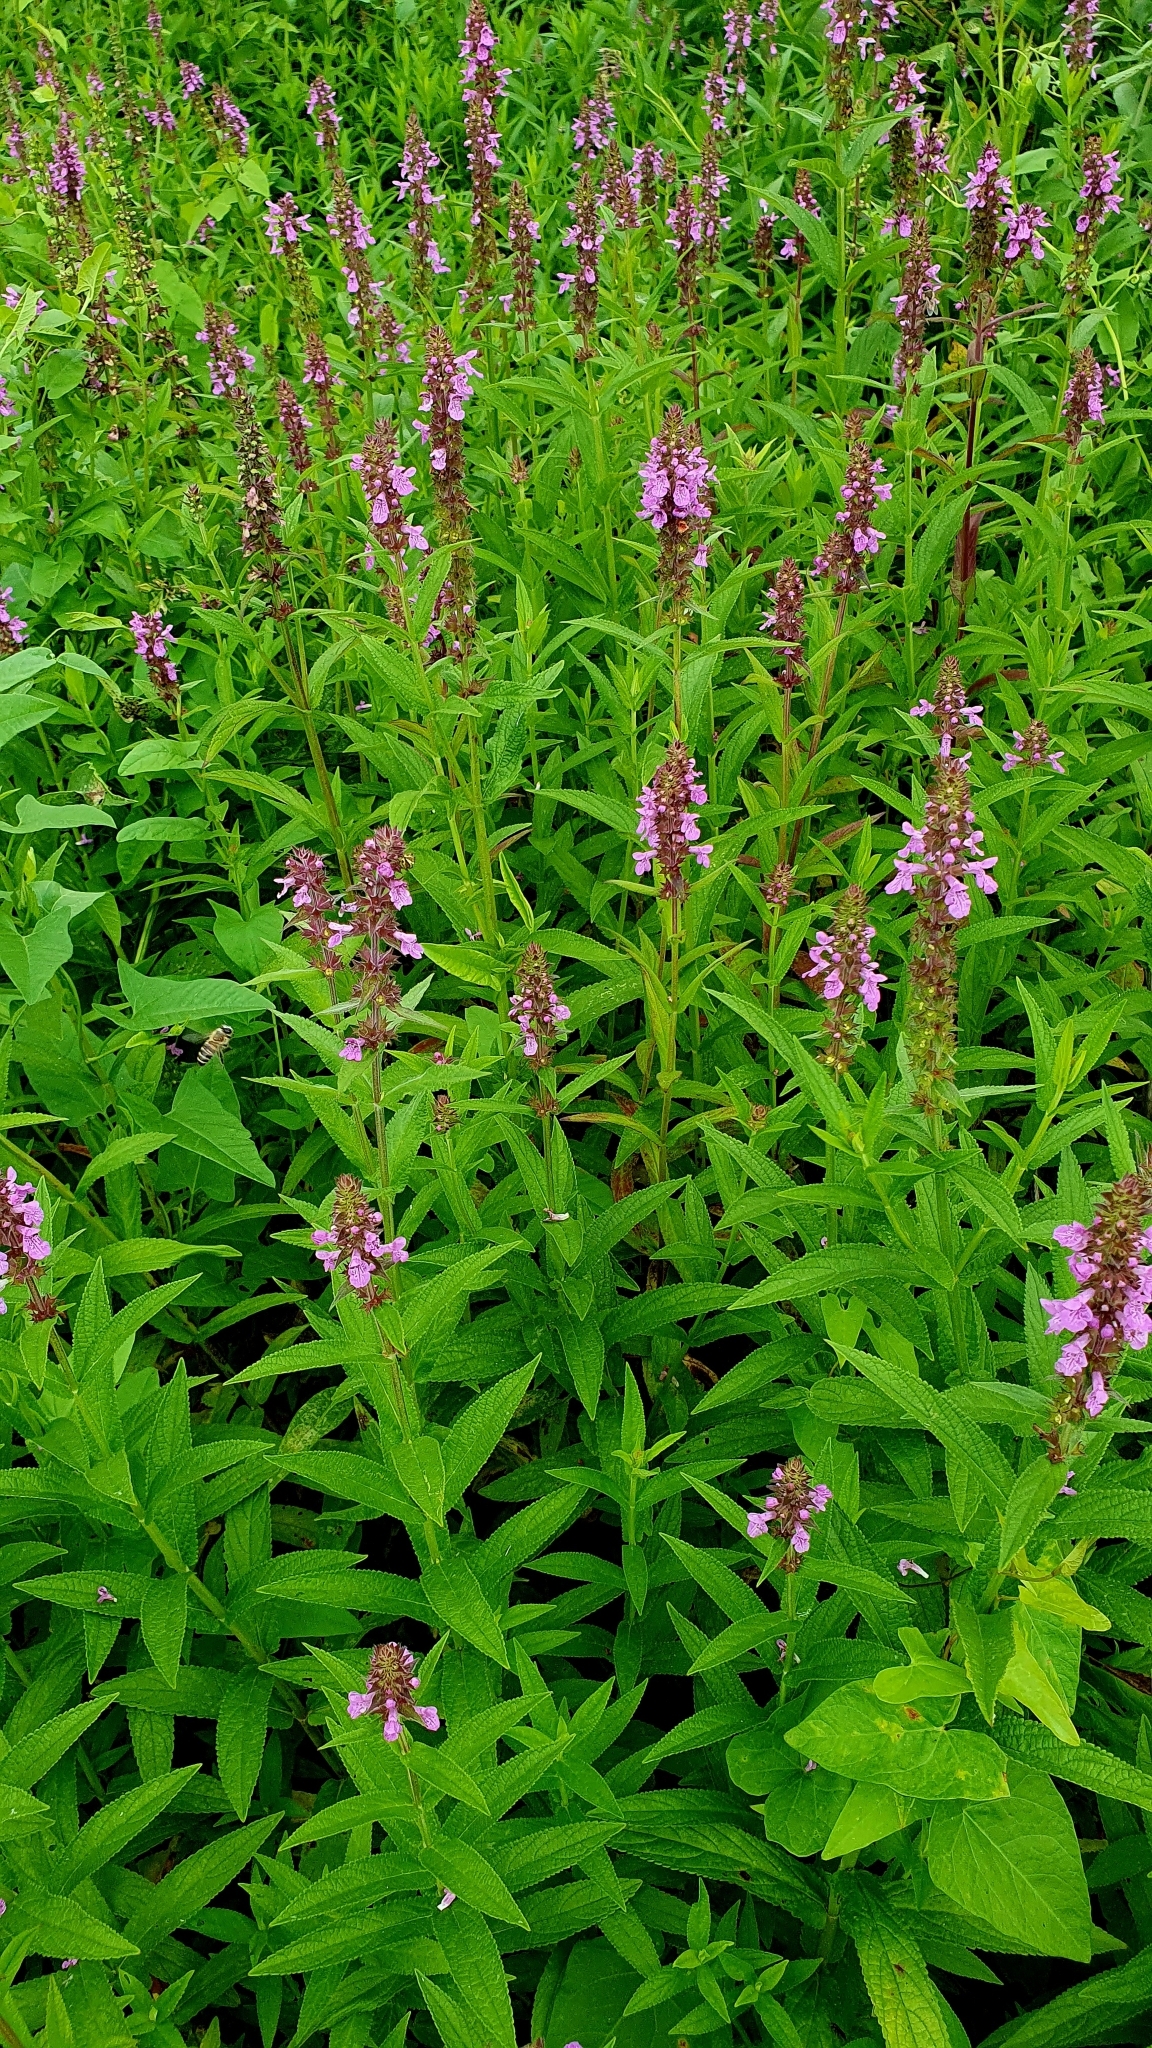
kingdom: Plantae
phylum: Tracheophyta
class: Magnoliopsida
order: Lamiales
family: Lamiaceae
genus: Stachys
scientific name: Stachys palustris
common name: Marsh woundwort
